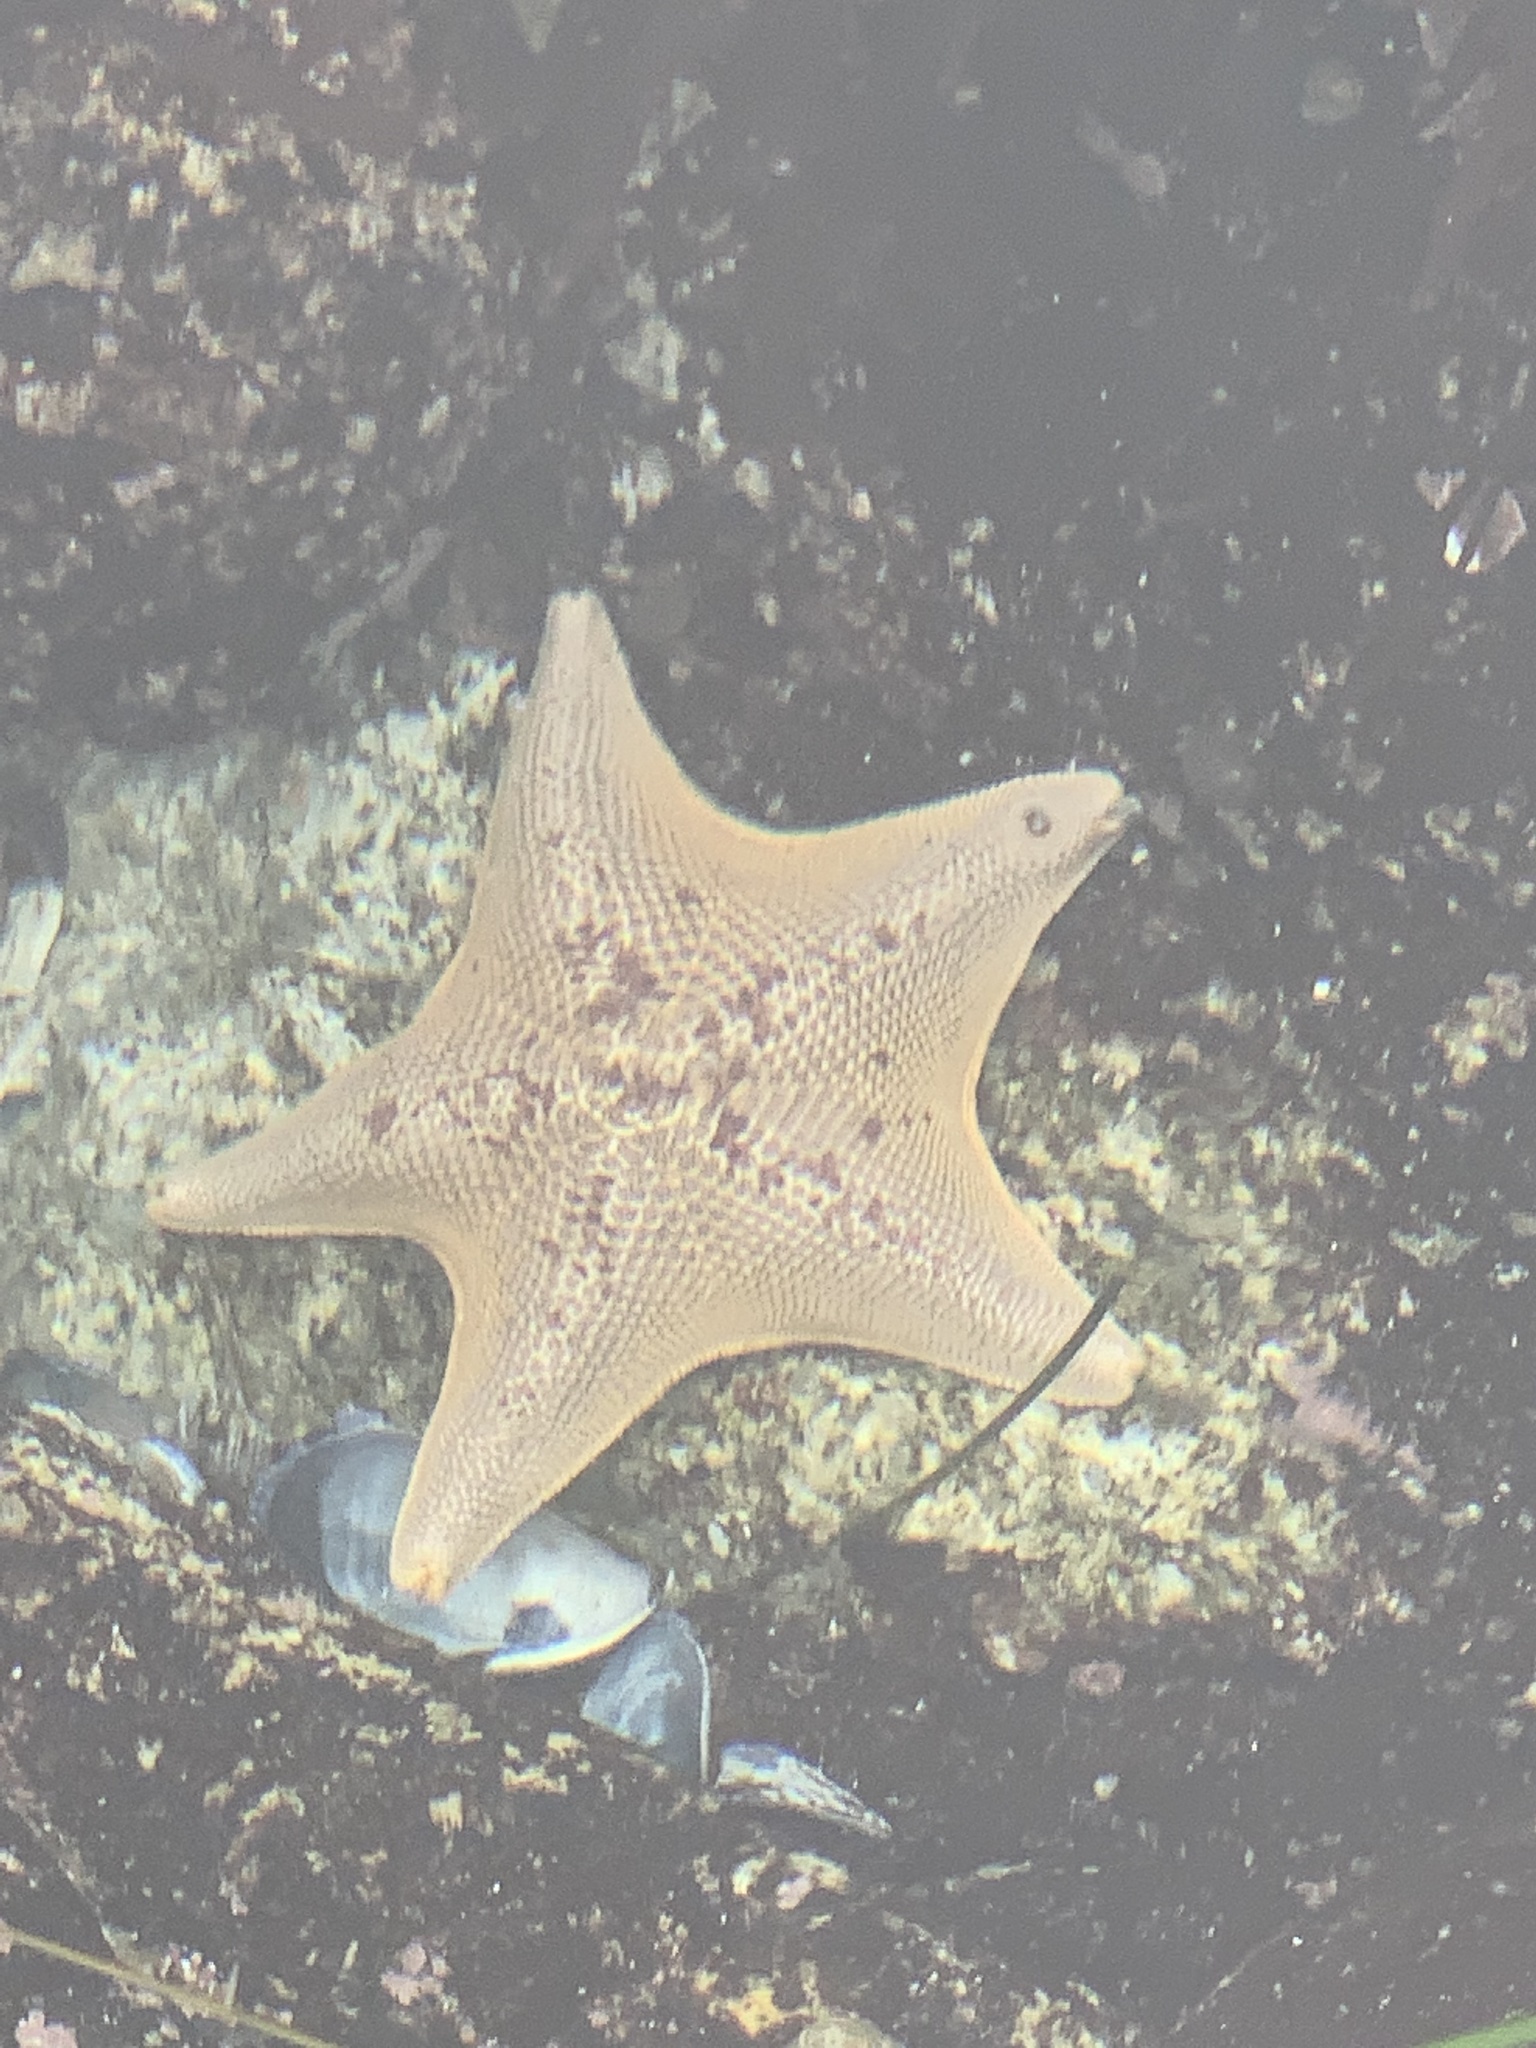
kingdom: Animalia
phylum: Echinodermata
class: Asteroidea
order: Valvatida
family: Asterinidae
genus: Patiria
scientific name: Patiria miniata
